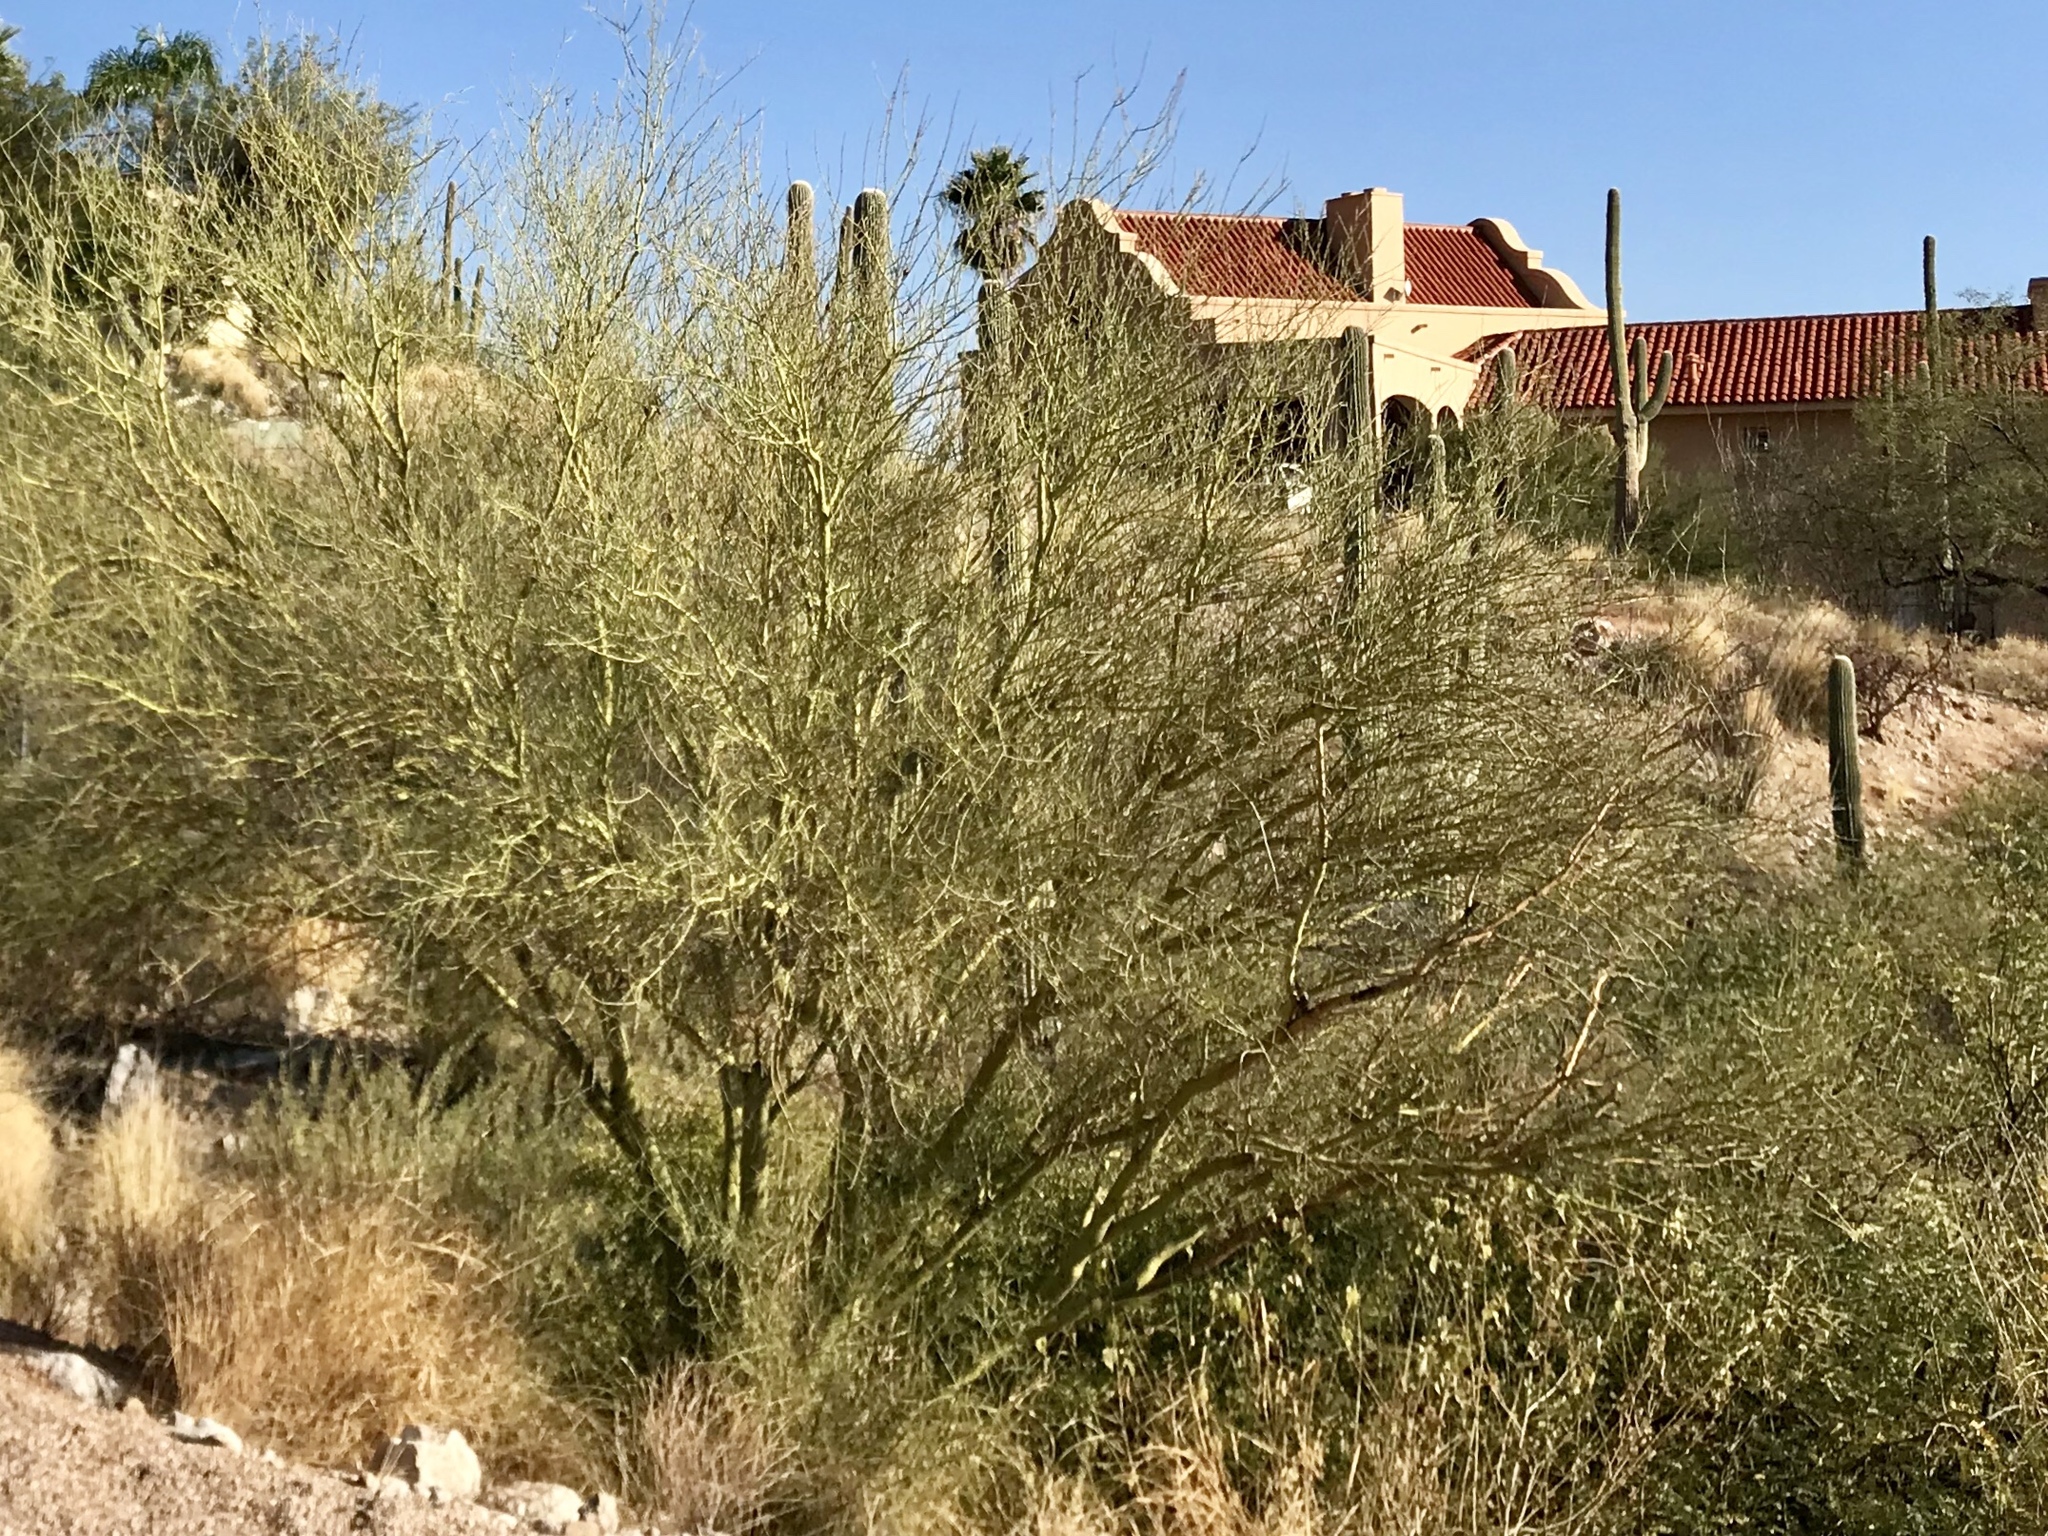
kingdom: Plantae
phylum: Tracheophyta
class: Magnoliopsida
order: Fabales
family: Fabaceae
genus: Parkinsonia
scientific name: Parkinsonia microphylla
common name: Yellow paloverde
